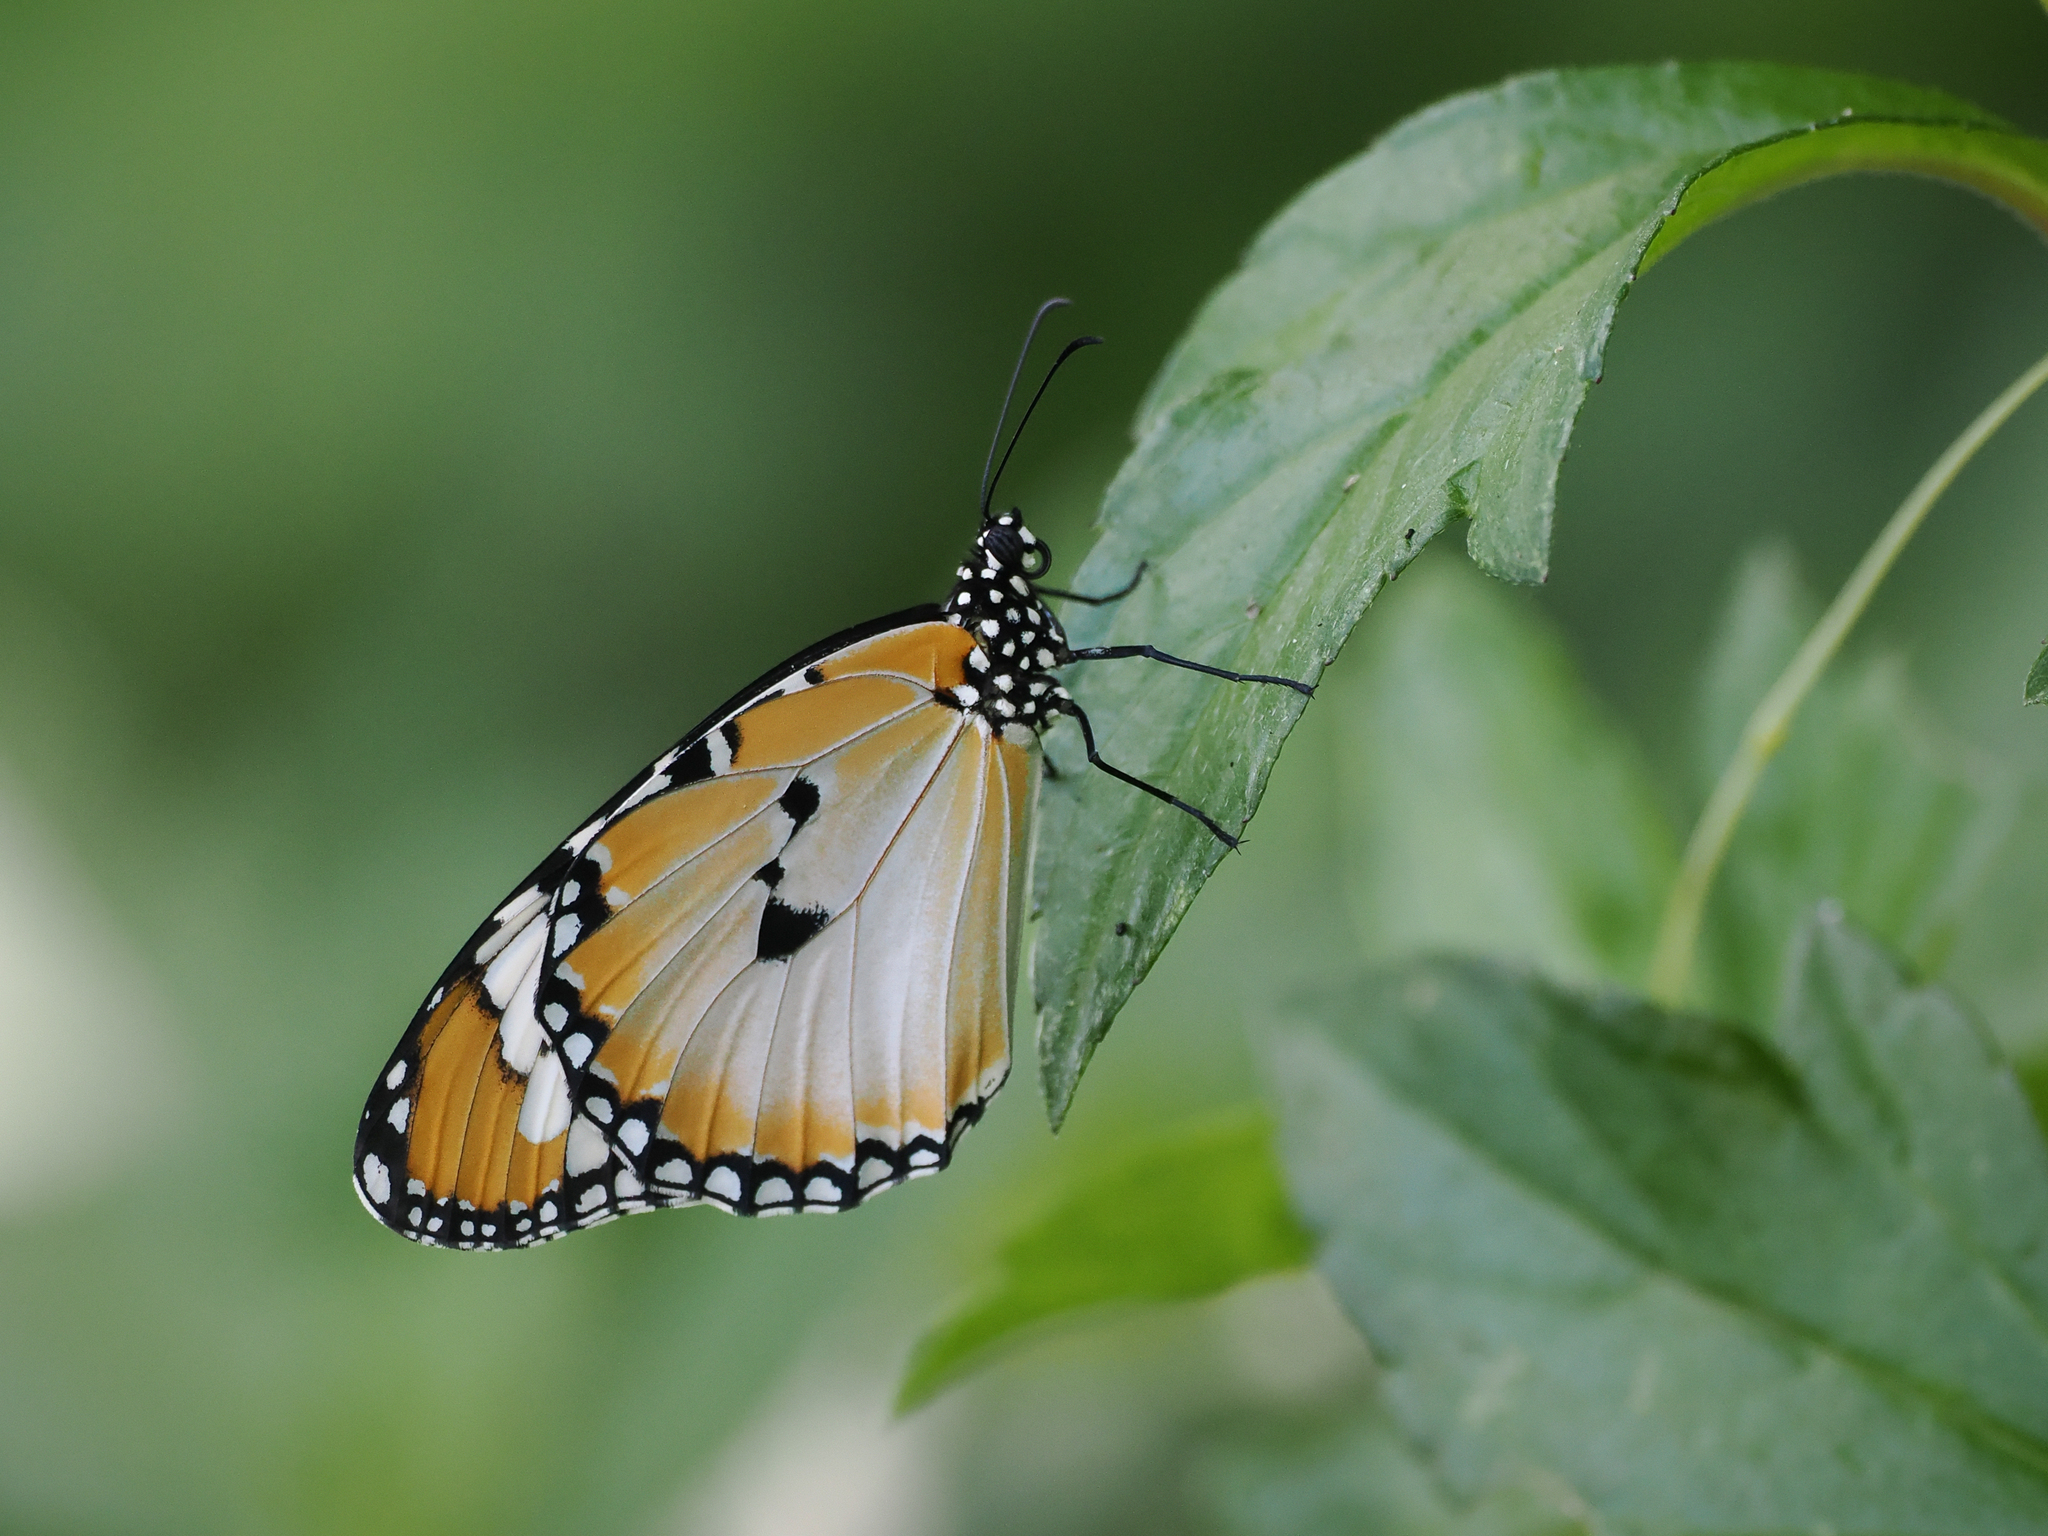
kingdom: Animalia
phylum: Arthropoda
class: Insecta
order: Lepidoptera
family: Nymphalidae
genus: Danaus
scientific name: Danaus chrysippus
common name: Plain tiger
